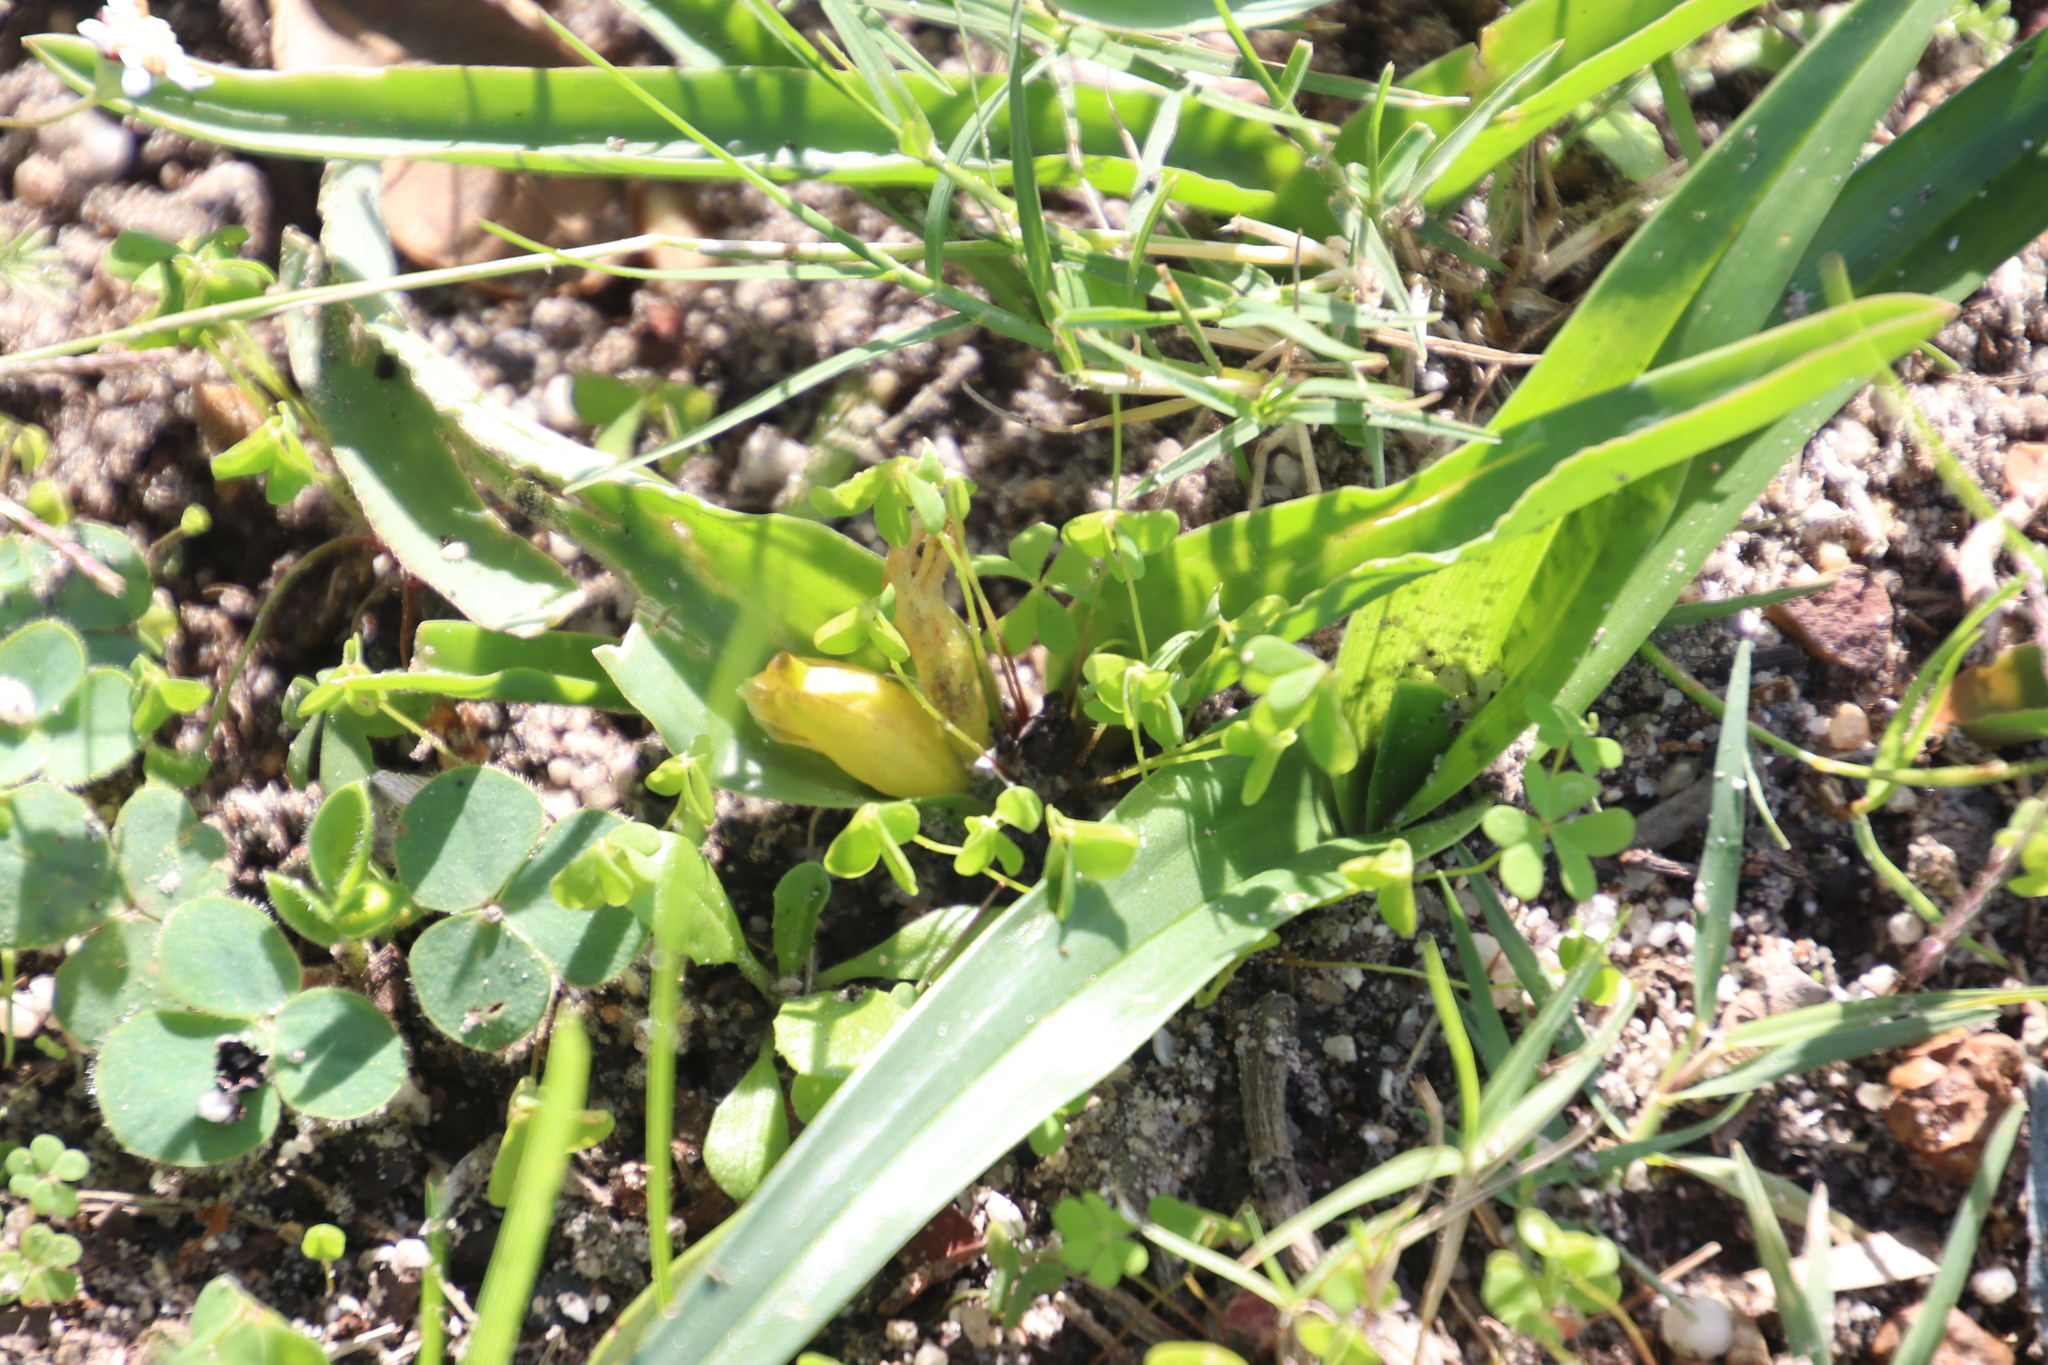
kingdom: Plantae
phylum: Tracheophyta
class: Liliopsida
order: Asparagales
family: Asparagaceae
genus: Lachenalia
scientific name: Lachenalia reflexa
